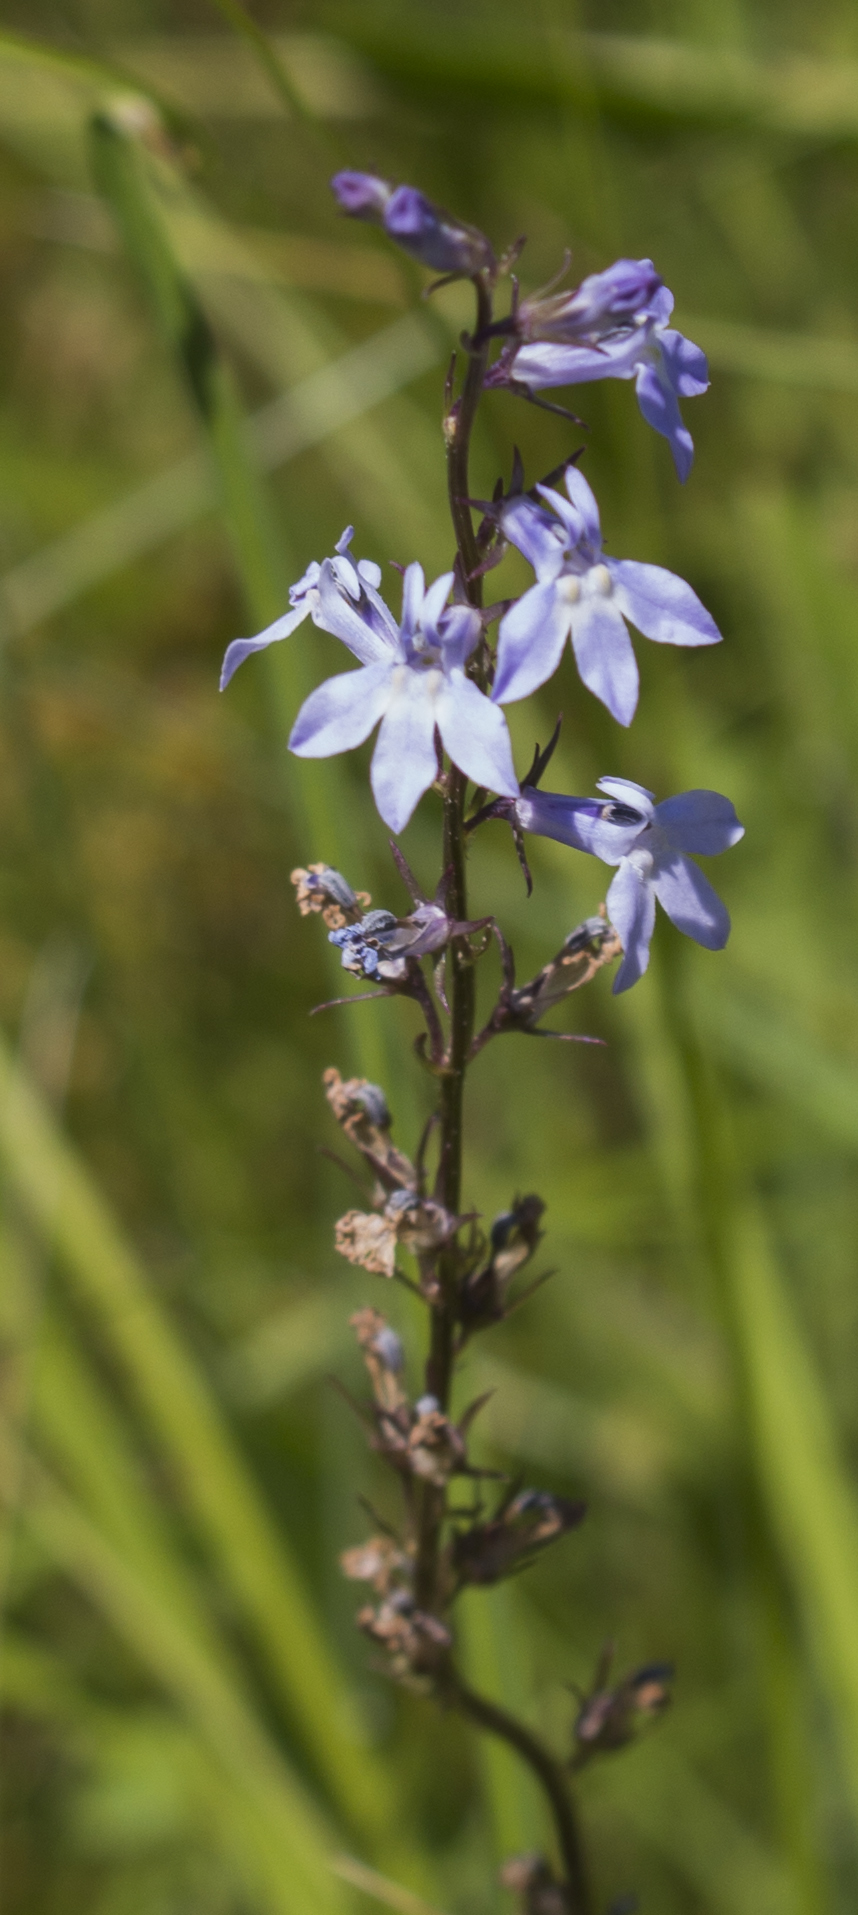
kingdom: Plantae
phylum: Tracheophyta
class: Magnoliopsida
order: Asterales
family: Campanulaceae
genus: Lobelia
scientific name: Lobelia spicata
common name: Pale-spike lobelia
